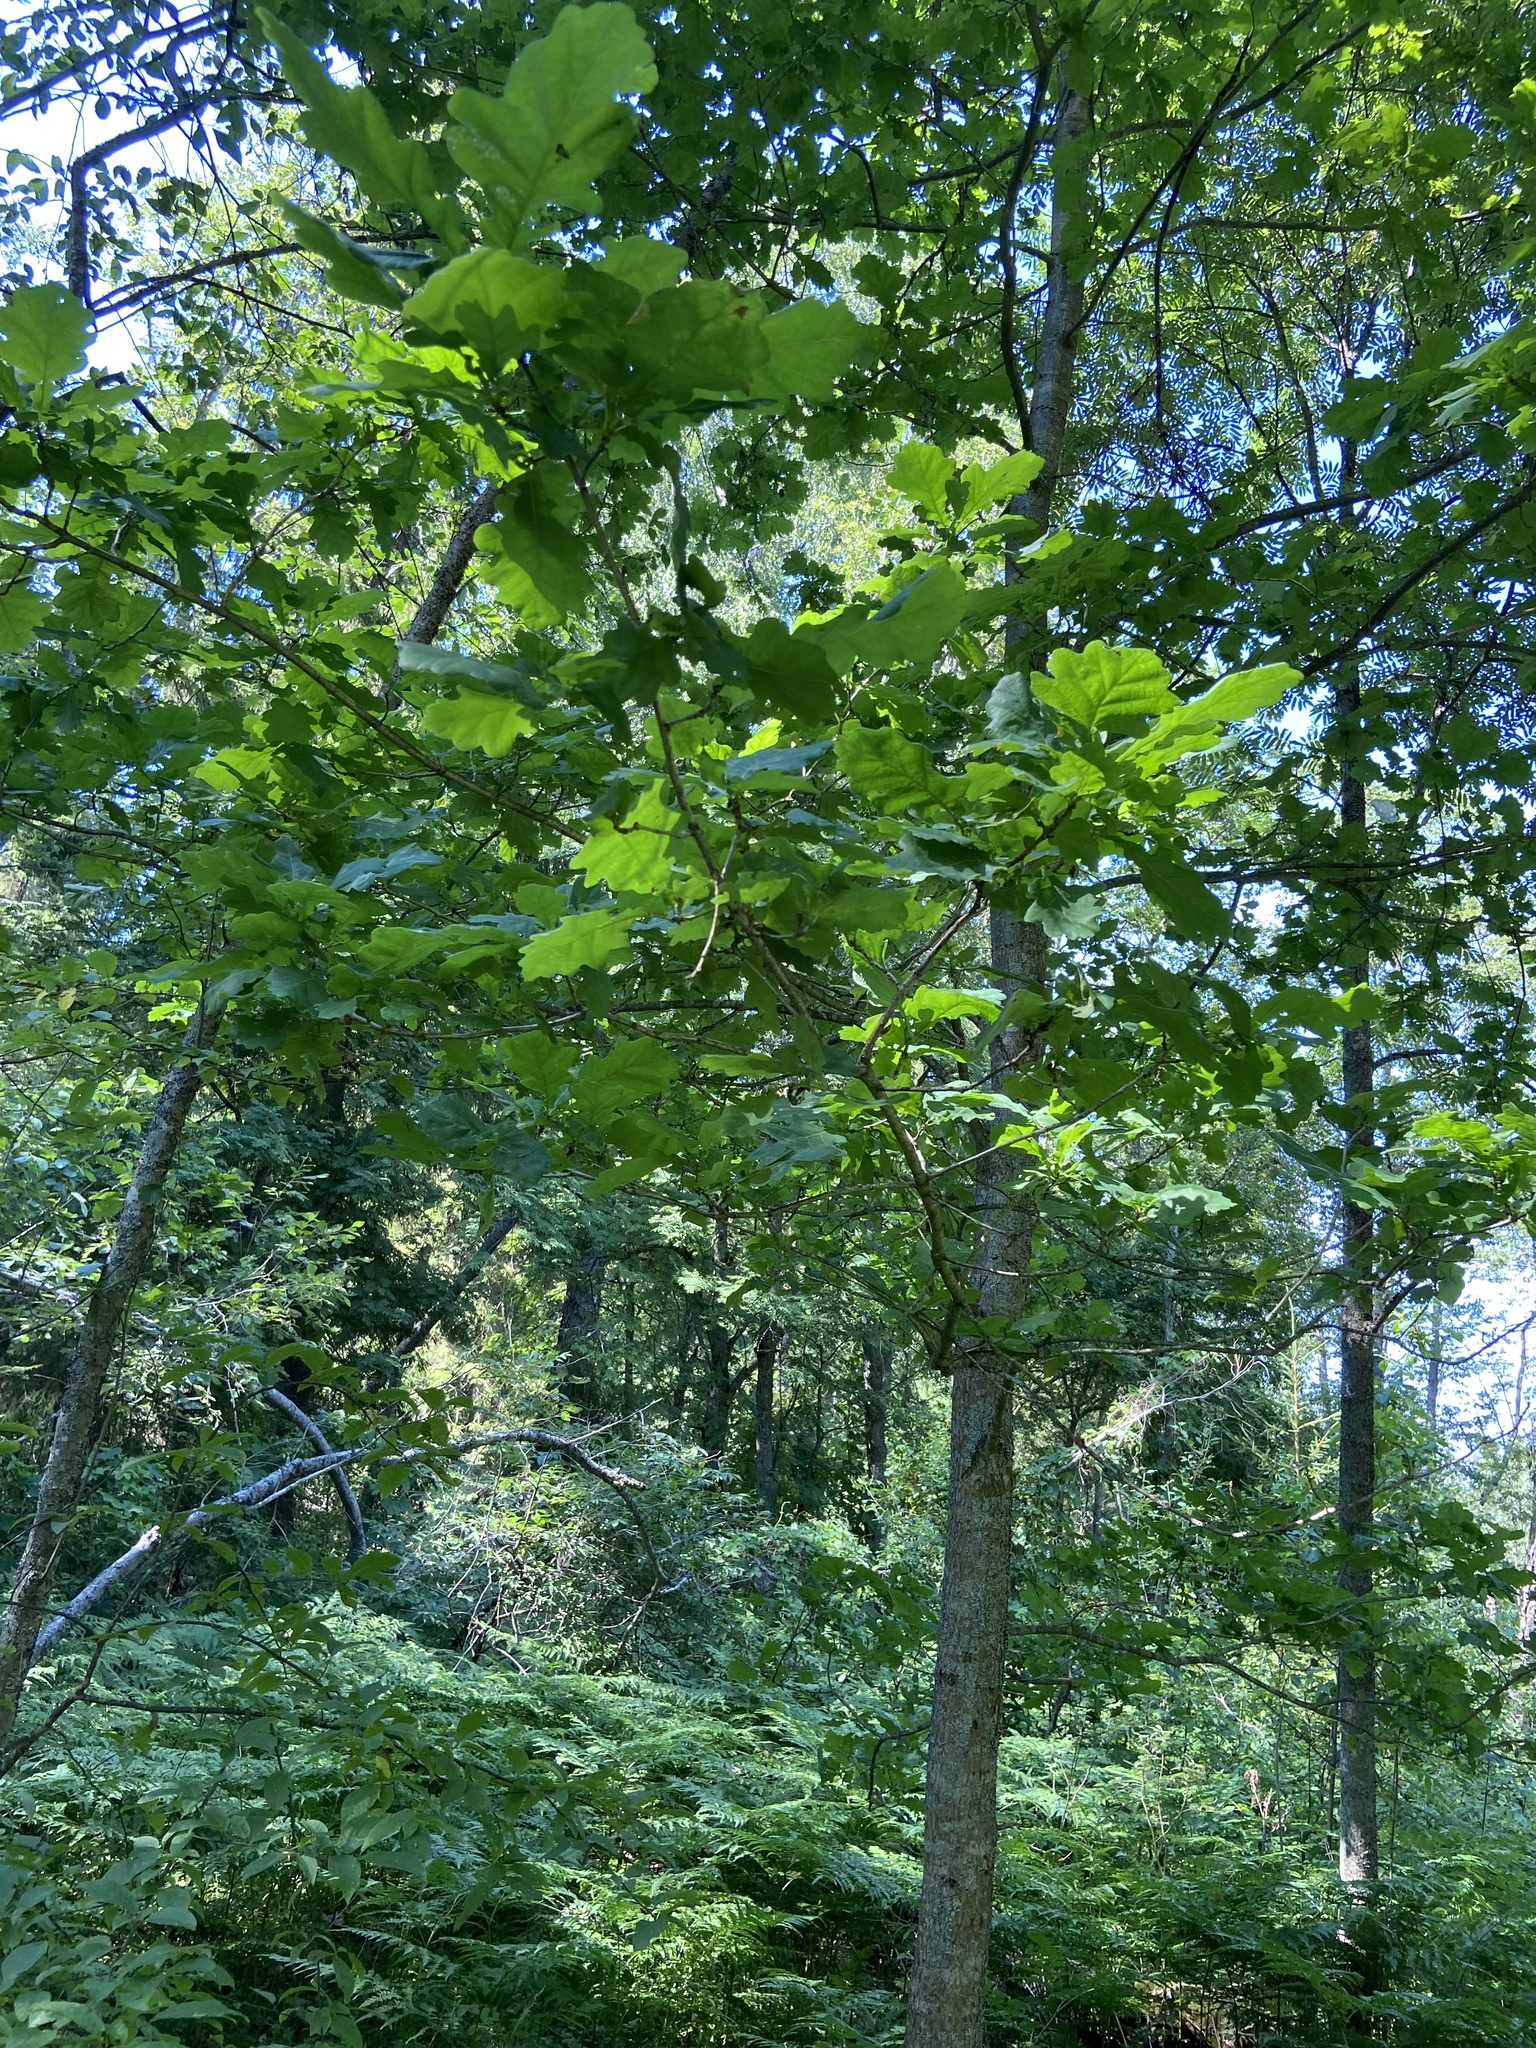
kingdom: Plantae
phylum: Tracheophyta
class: Magnoliopsida
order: Fagales
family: Fagaceae
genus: Quercus
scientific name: Quercus robur
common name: Pedunculate oak
